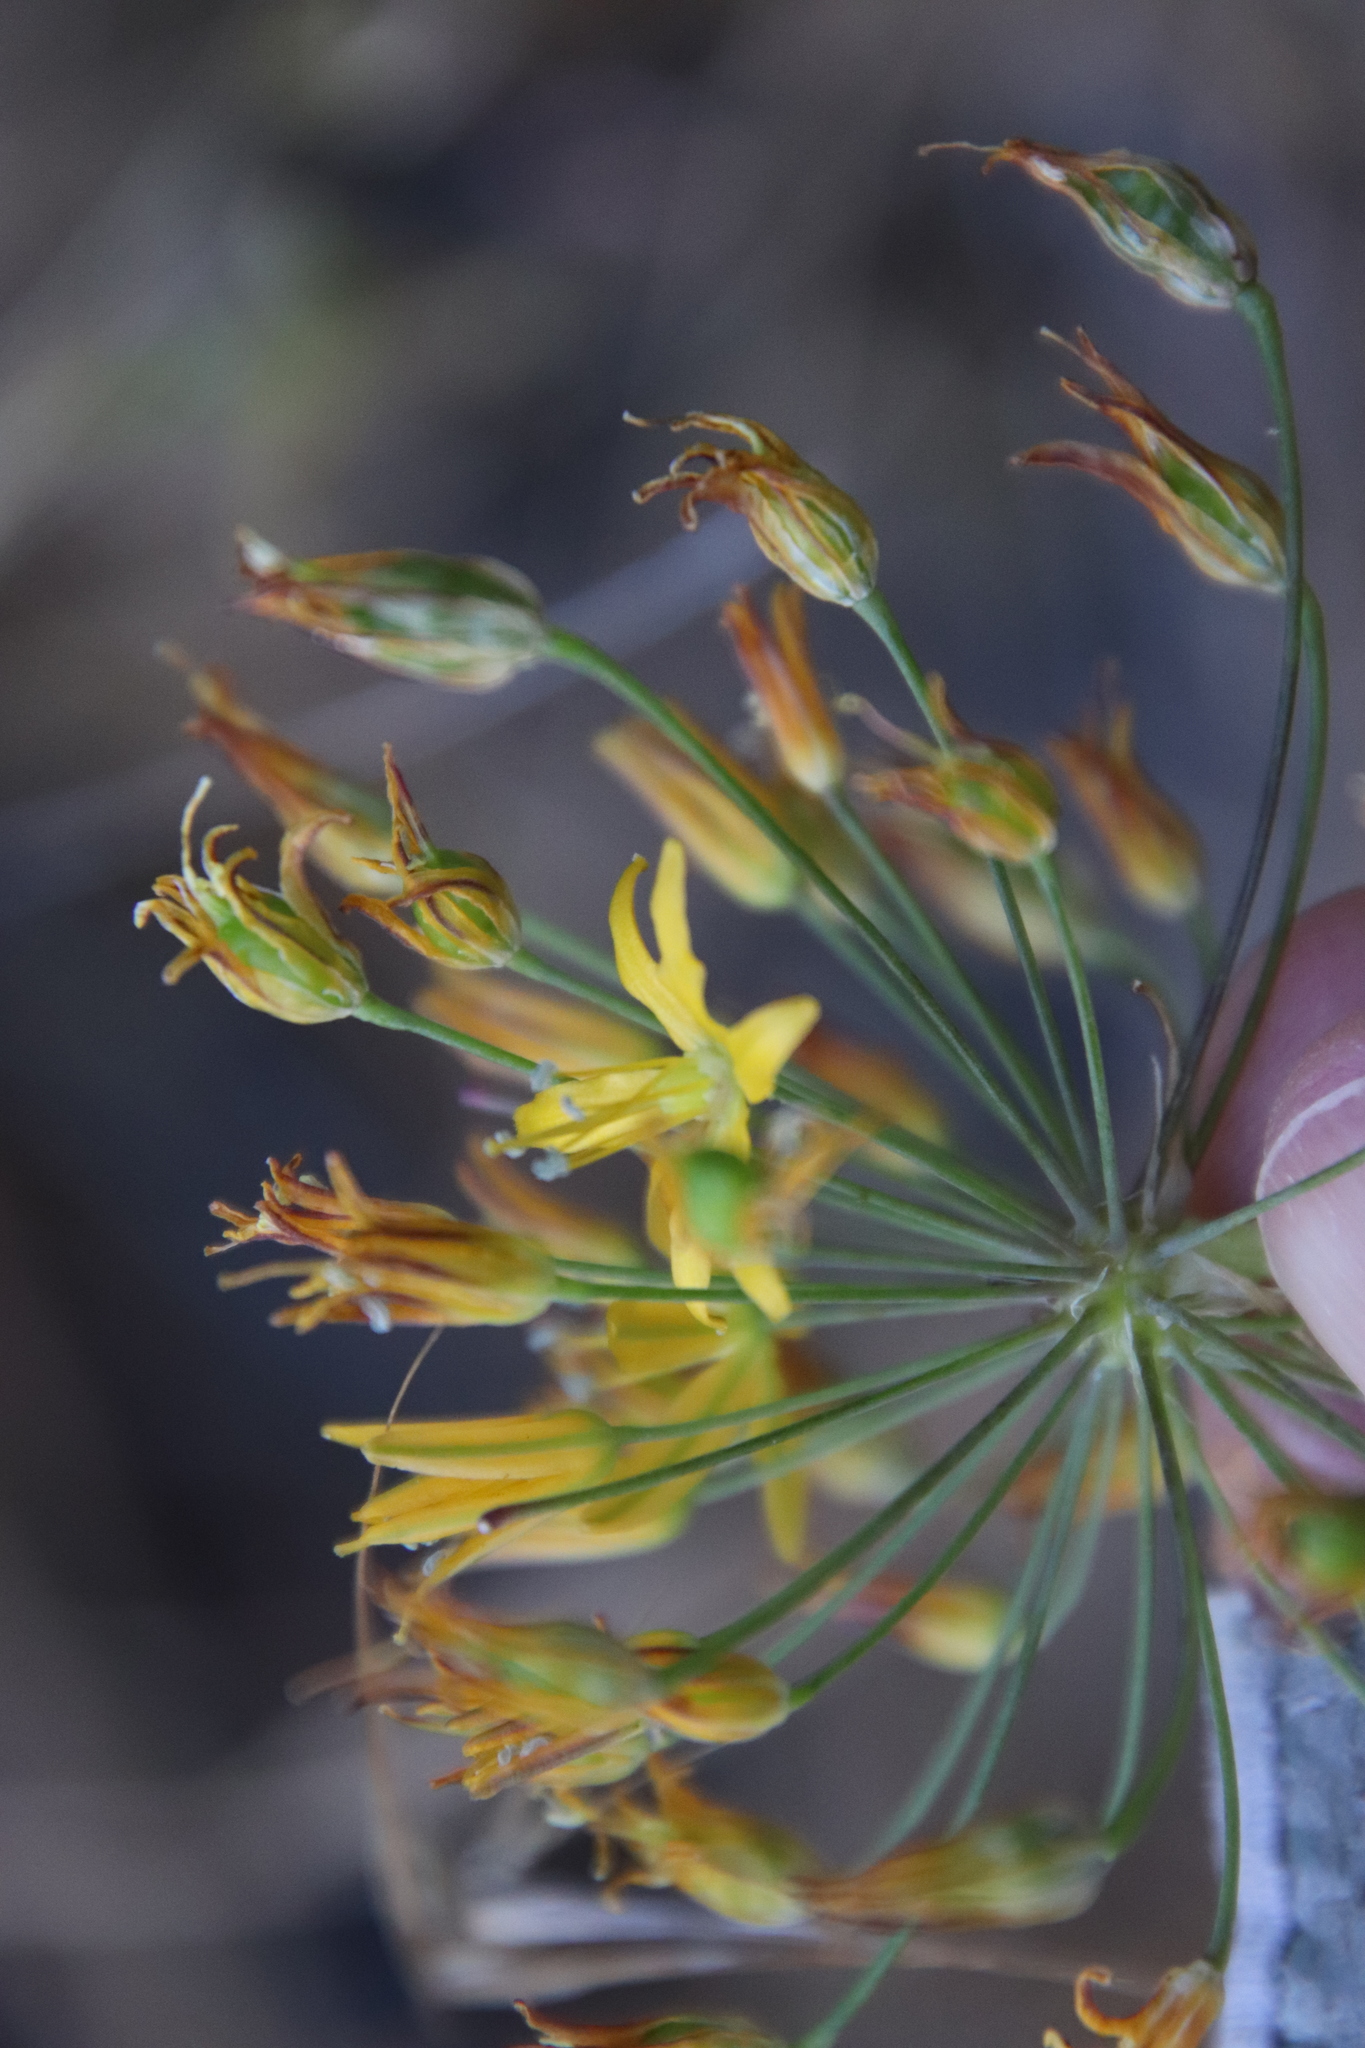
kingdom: Plantae
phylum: Tracheophyta
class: Liliopsida
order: Asparagales
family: Asparagaceae
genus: Bloomeria
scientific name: Bloomeria crocea
